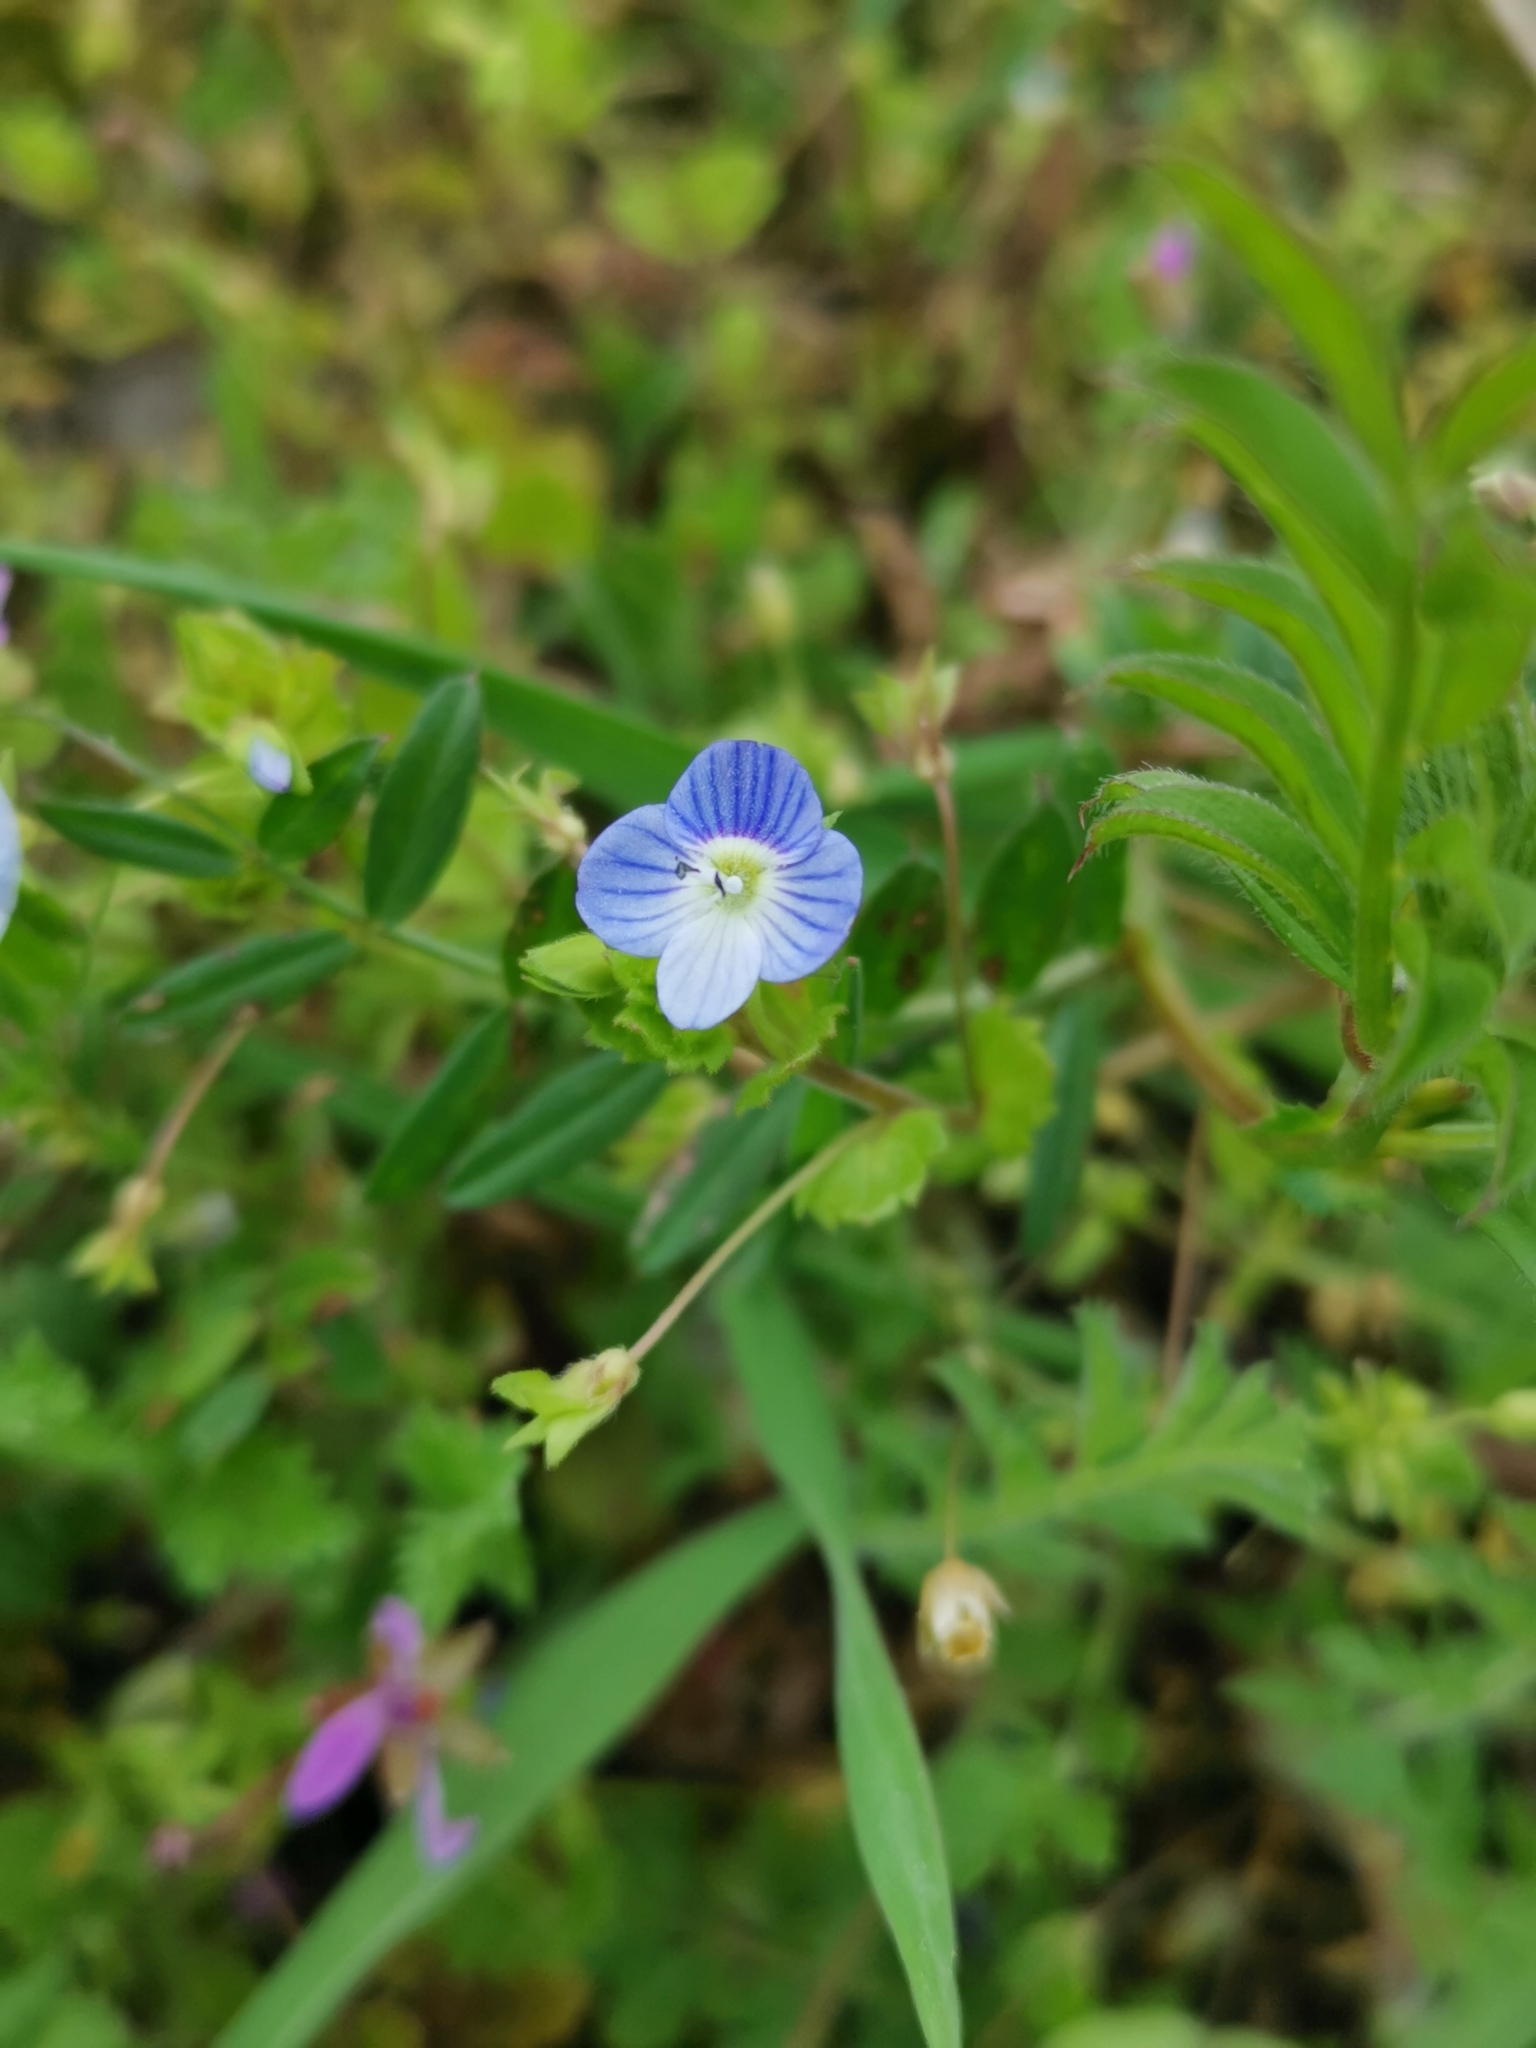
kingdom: Plantae
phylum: Tracheophyta
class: Magnoliopsida
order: Lamiales
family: Plantaginaceae
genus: Veronica
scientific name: Veronica persica
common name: Common field-speedwell
